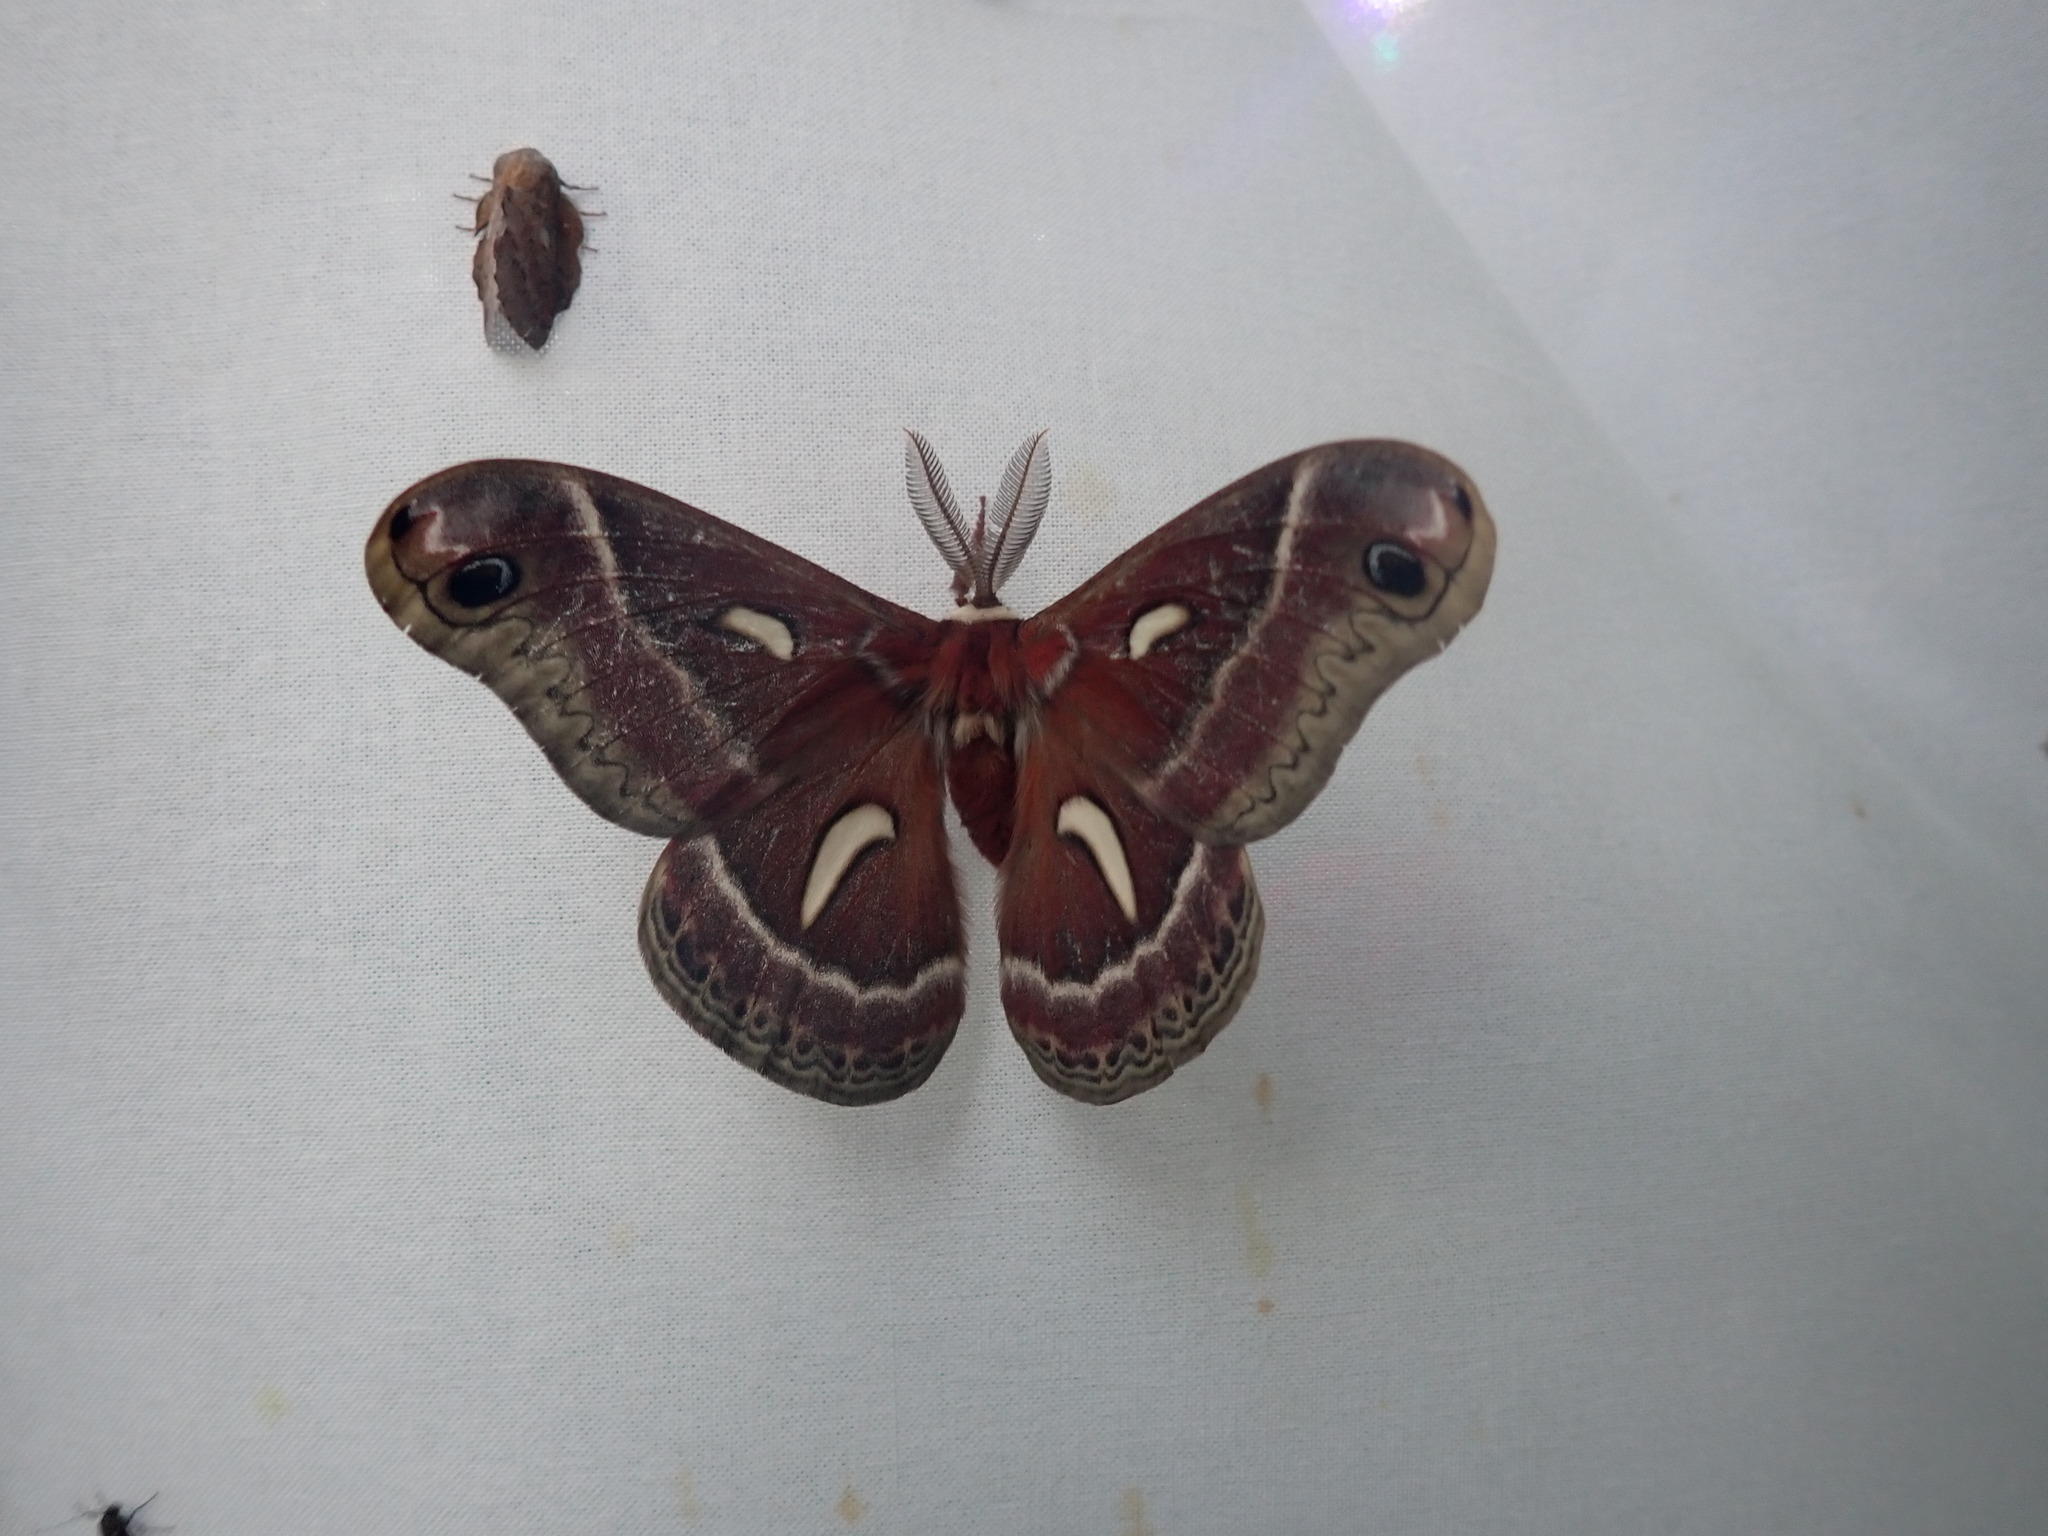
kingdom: Animalia
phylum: Arthropoda
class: Insecta
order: Lepidoptera
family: Saturniidae
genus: Hyalophora
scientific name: Hyalophora euryalus
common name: Ceanothus silkmoth
